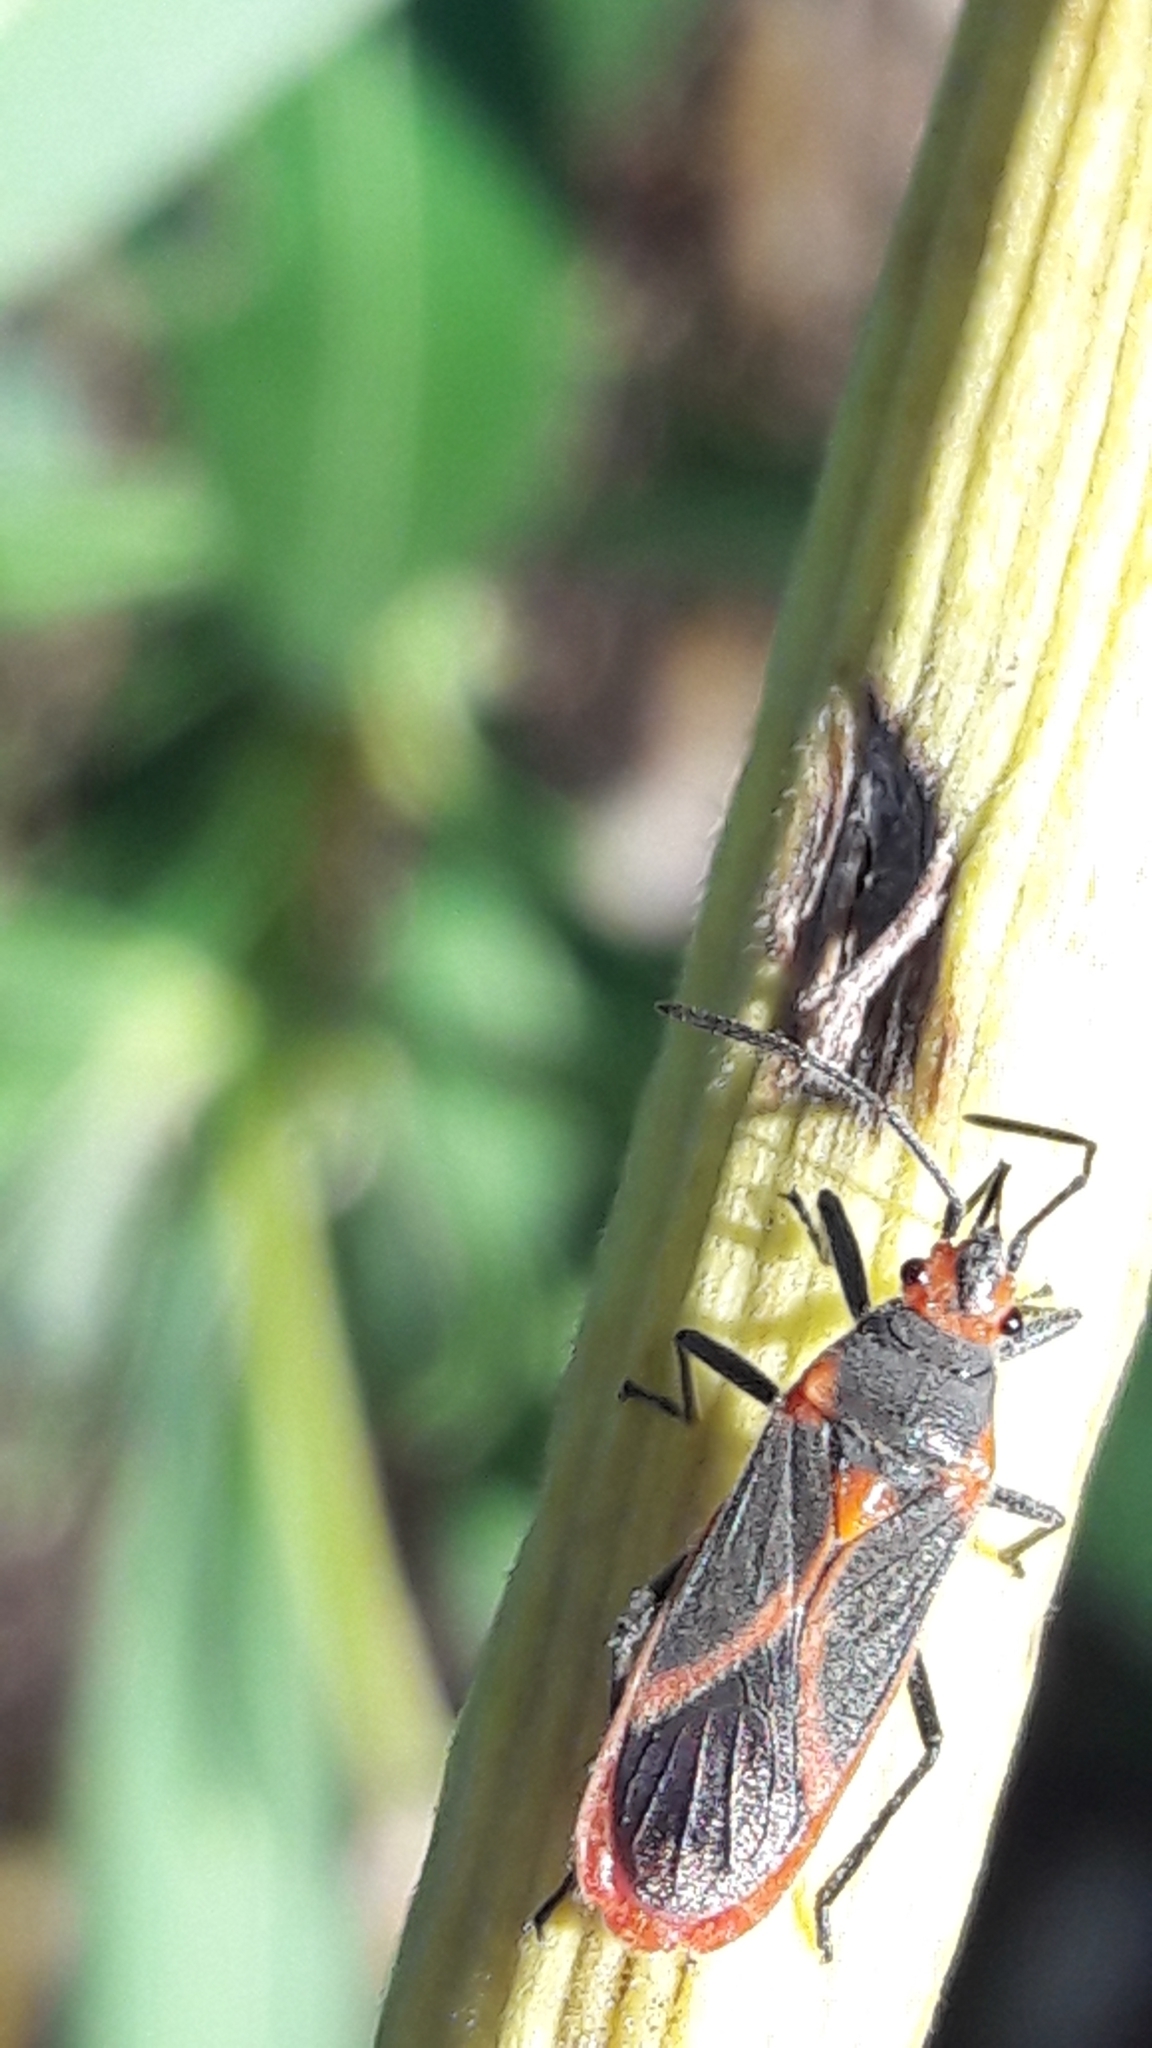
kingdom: Animalia
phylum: Arthropoda
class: Insecta
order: Hemiptera
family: Lygaeidae
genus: Caenocoris
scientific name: Caenocoris nerii
